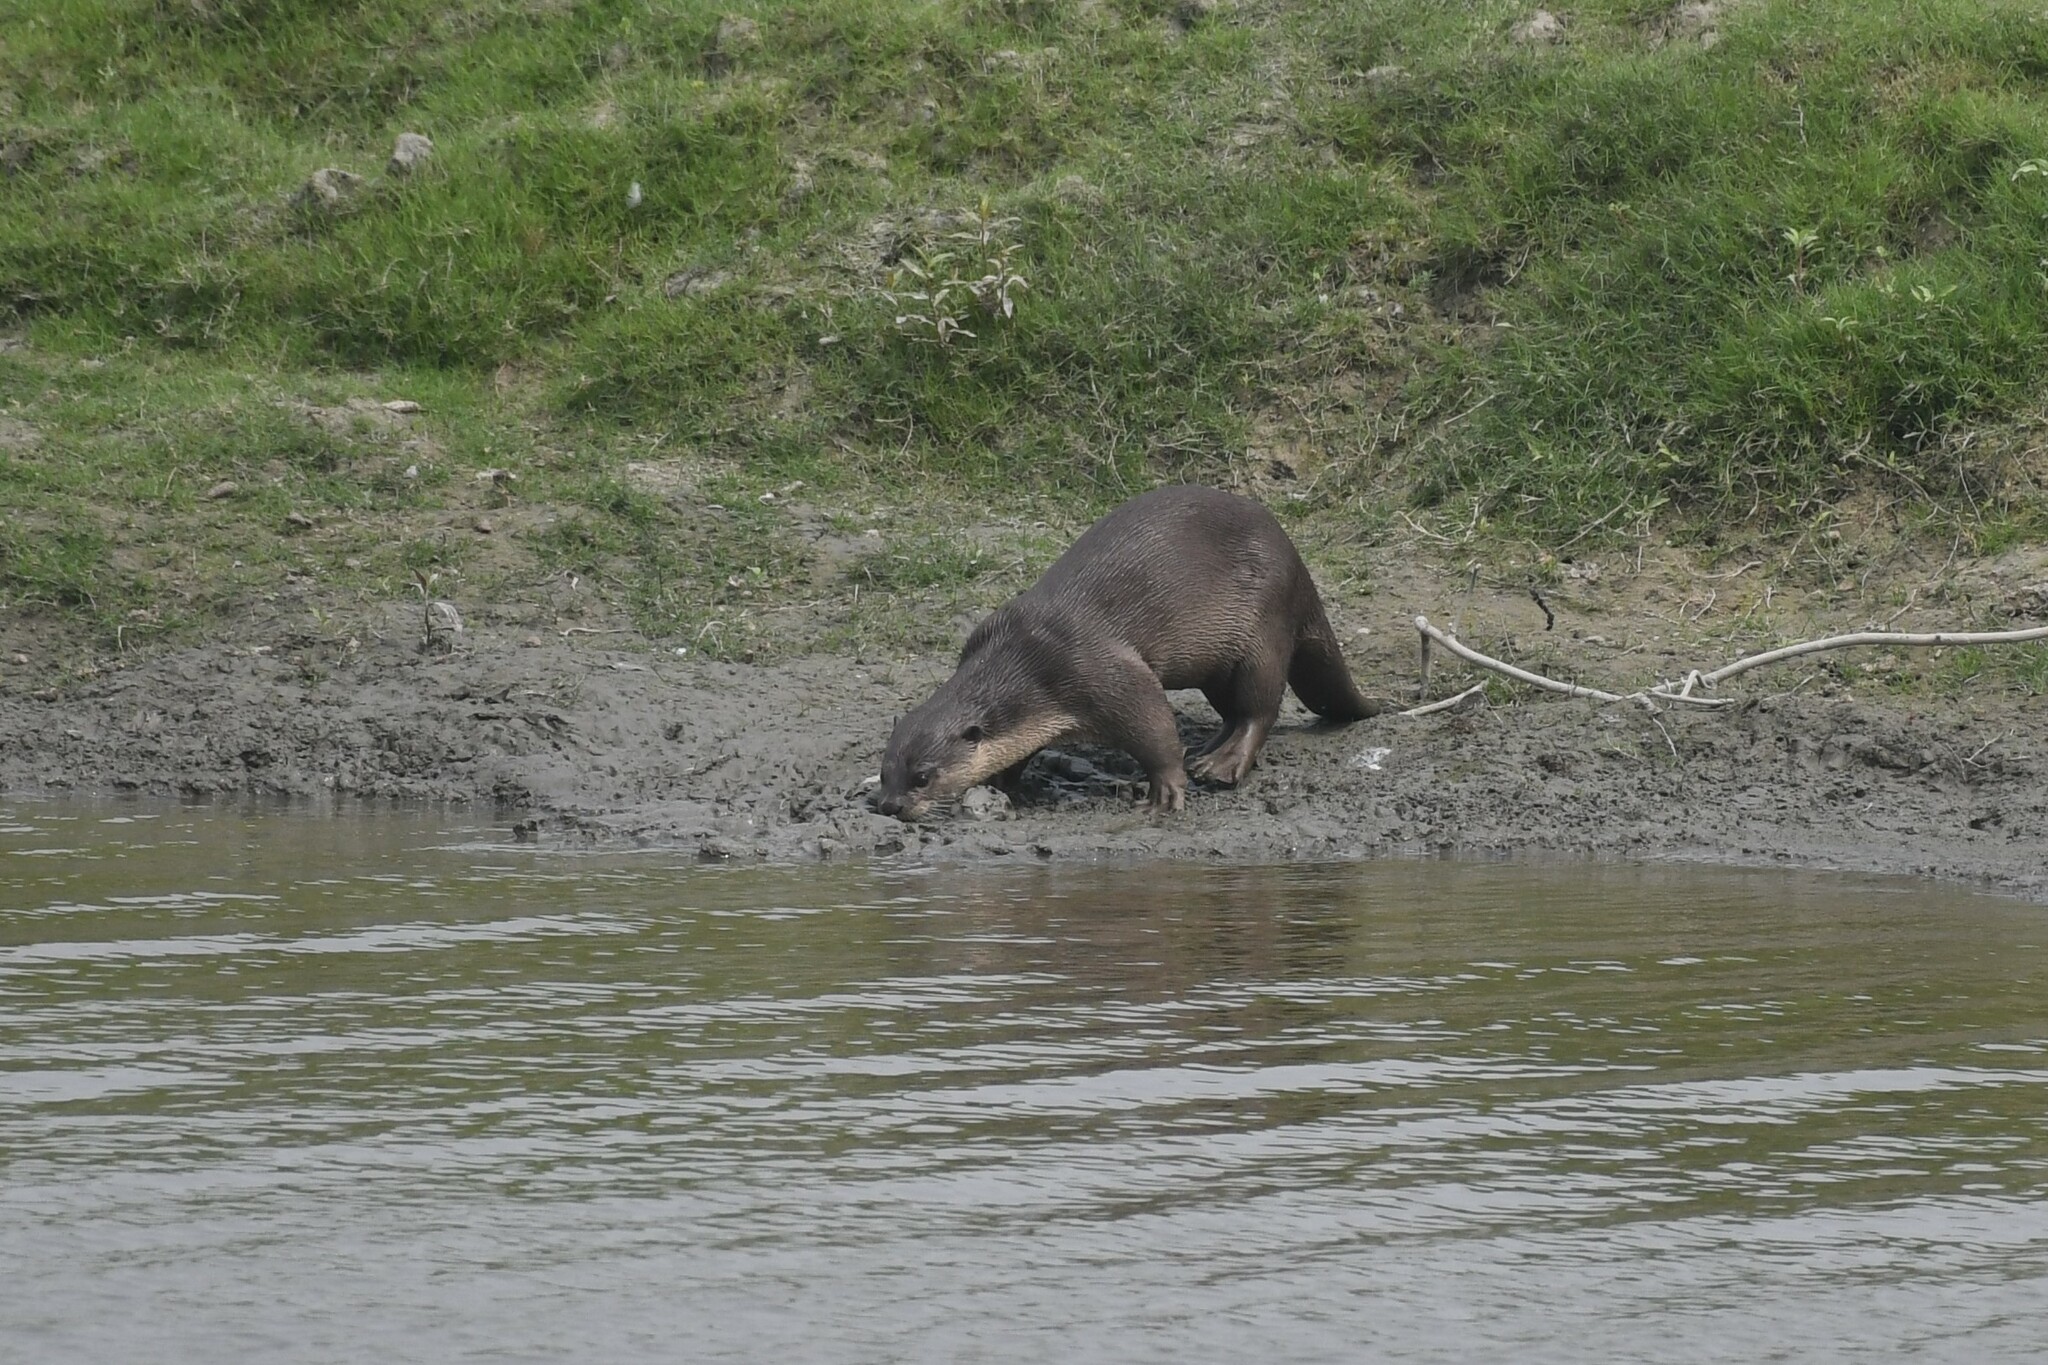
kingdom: Animalia
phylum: Chordata
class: Mammalia
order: Carnivora
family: Mustelidae
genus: Lutrogale
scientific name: Lutrogale perspicillata
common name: Smooth-coated otter
